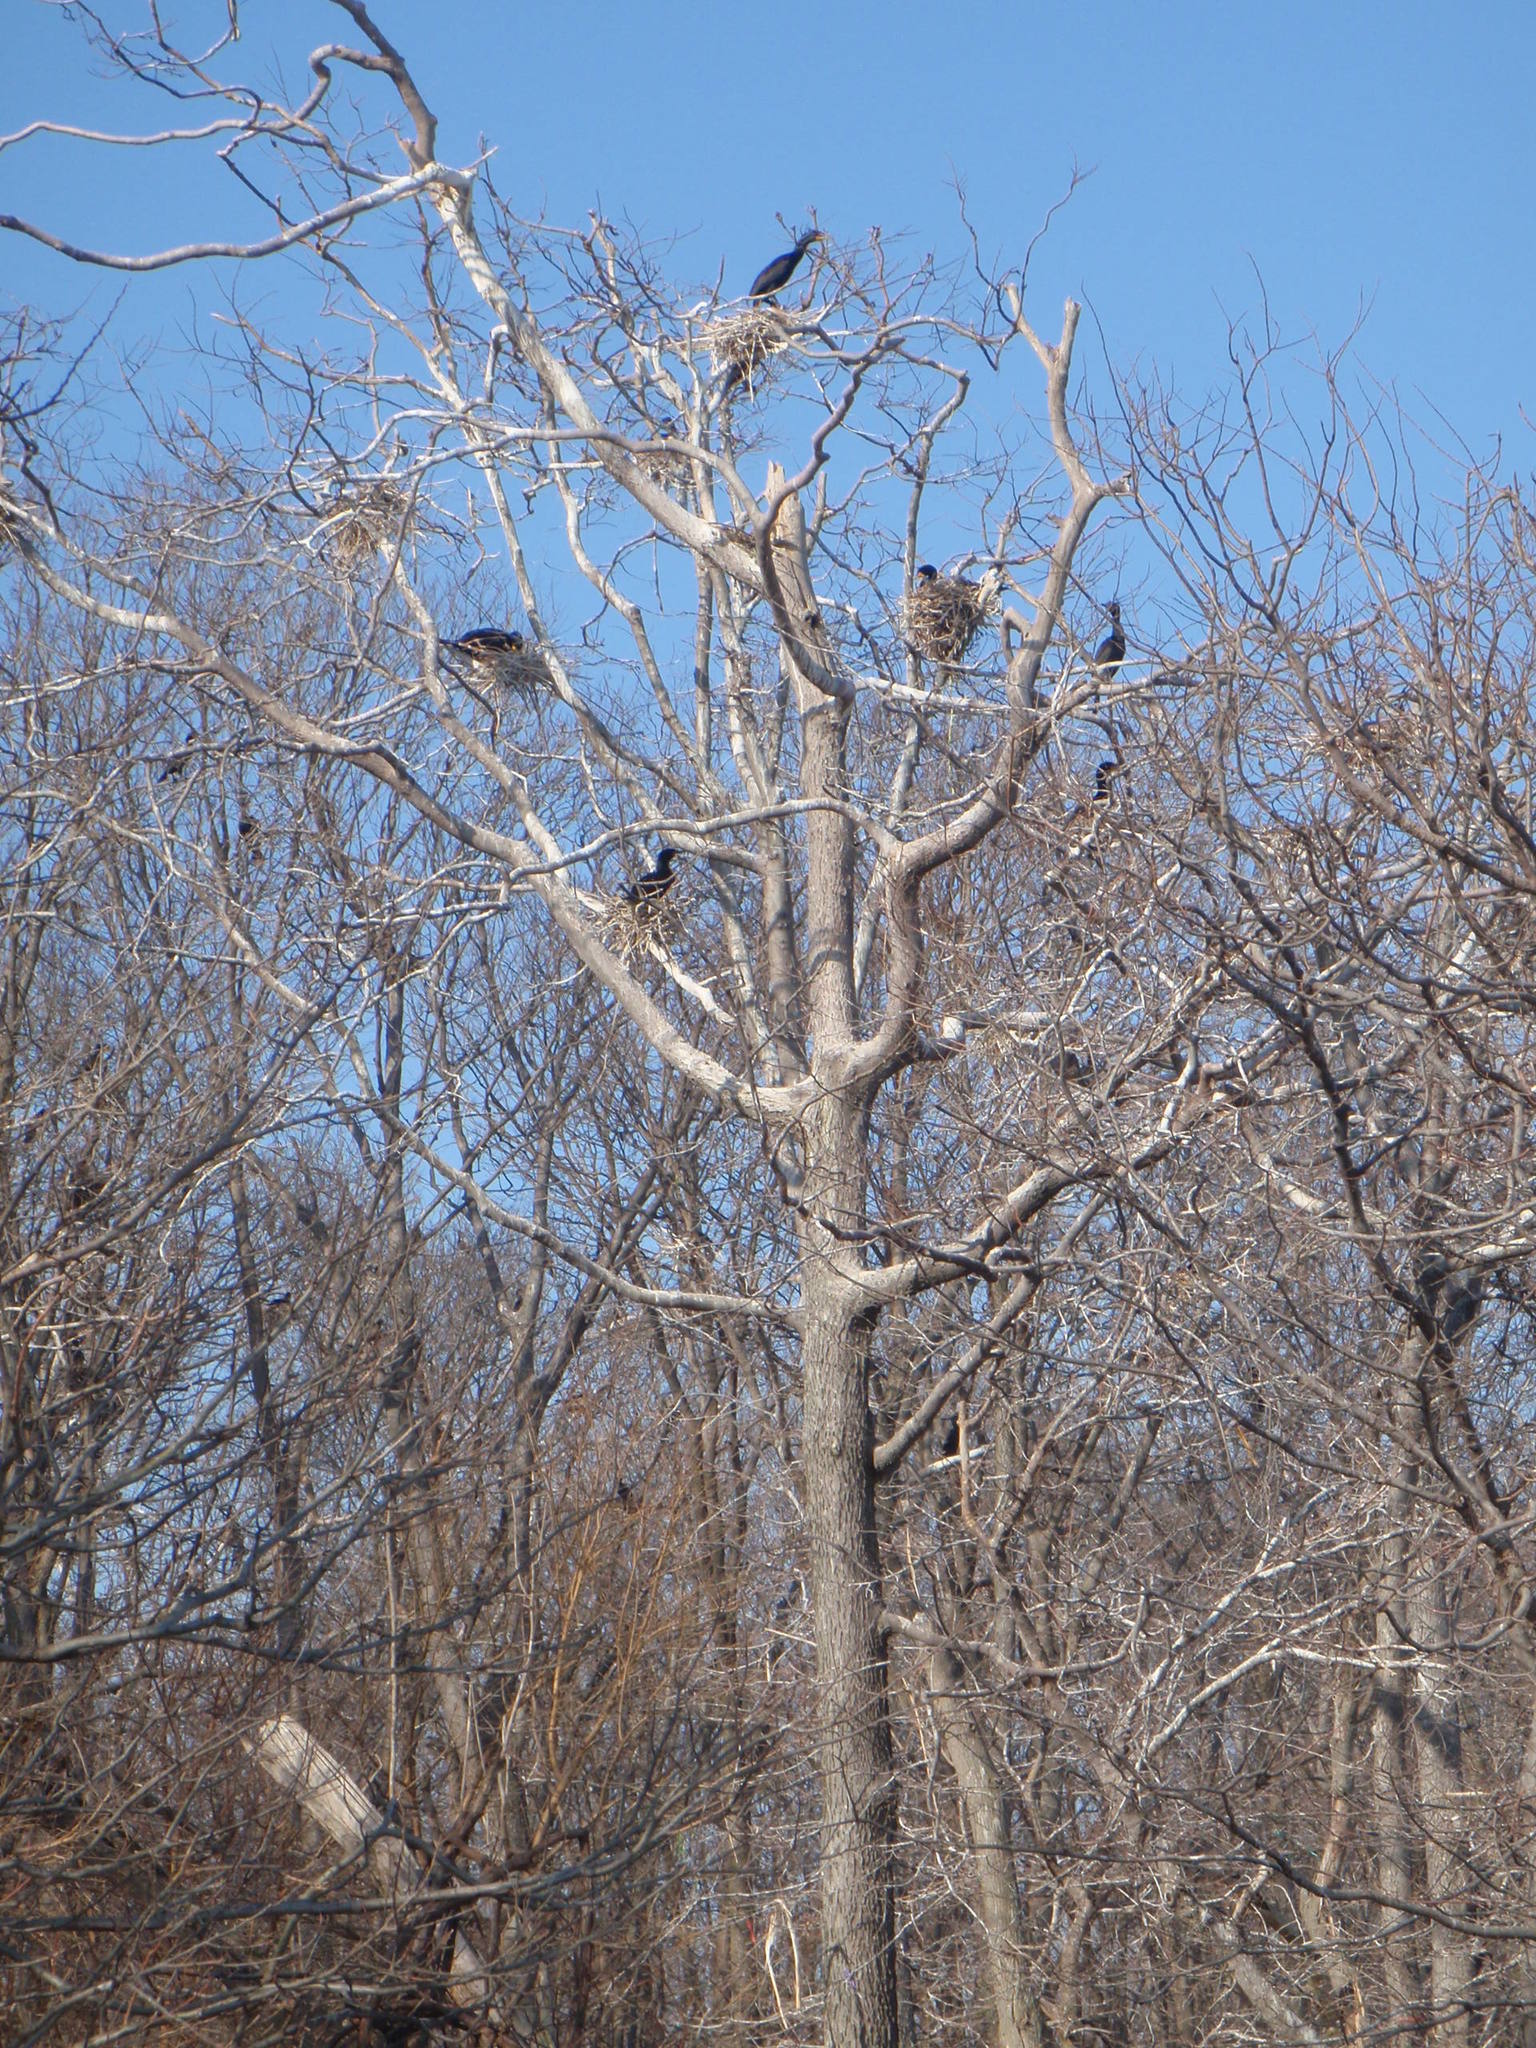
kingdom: Animalia
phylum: Chordata
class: Aves
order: Suliformes
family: Phalacrocoracidae
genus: Phalacrocorax
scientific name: Phalacrocorax auritus
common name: Double-crested cormorant
